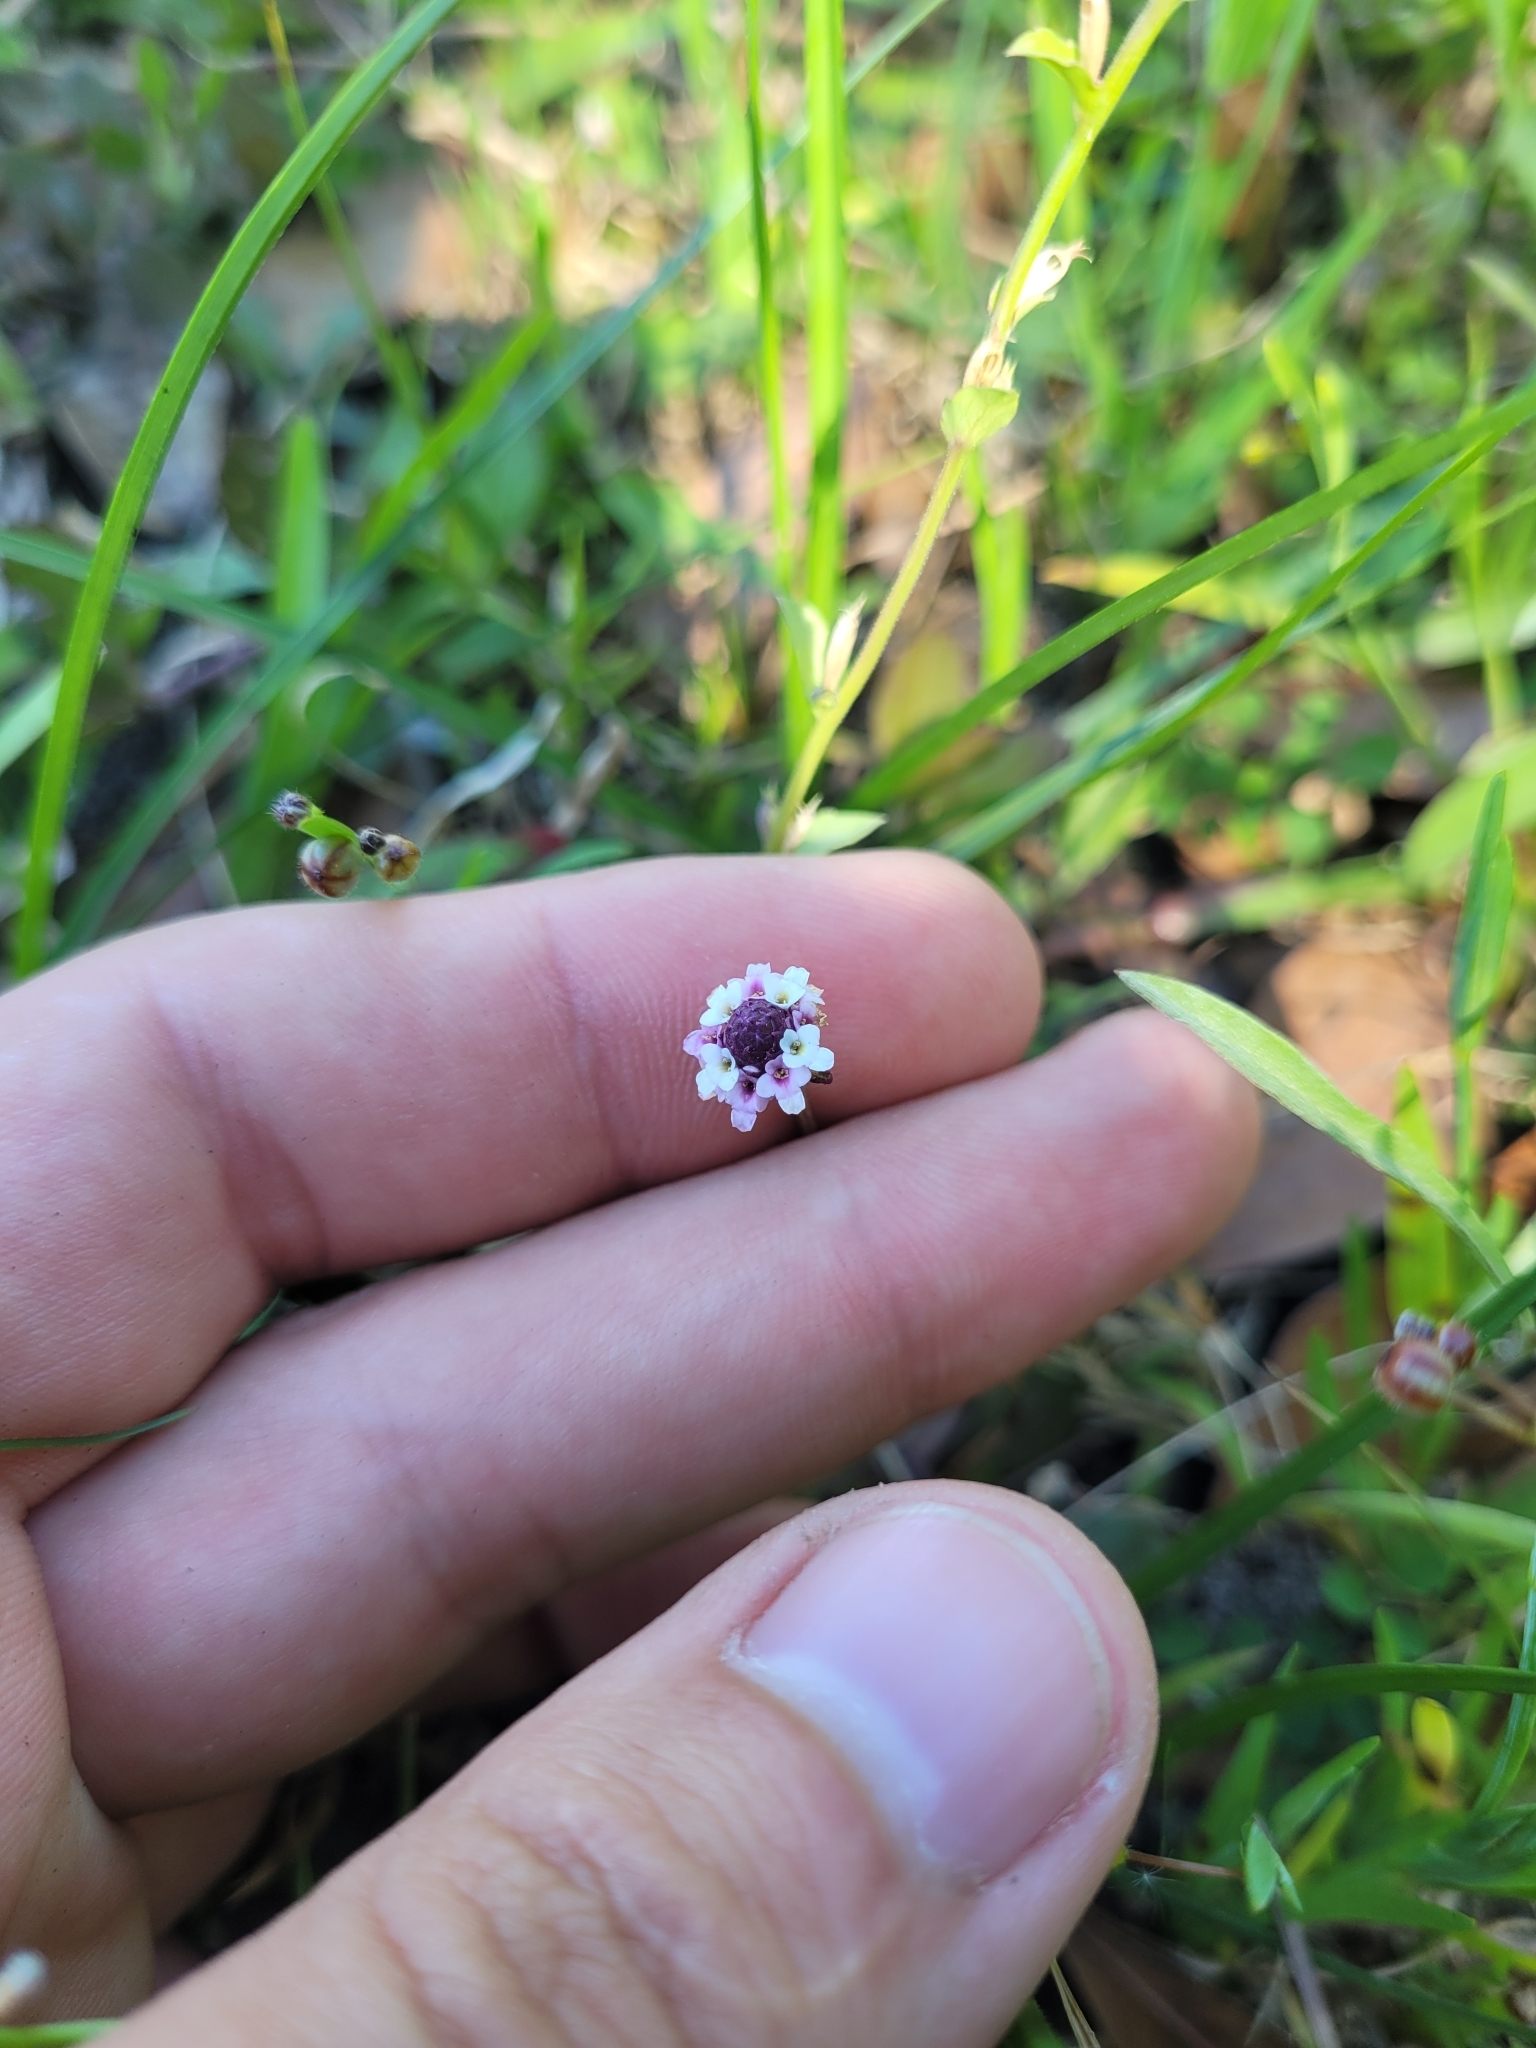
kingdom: Plantae
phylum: Tracheophyta
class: Magnoliopsida
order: Lamiales
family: Verbenaceae
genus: Phyla
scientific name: Phyla nodiflora
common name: Frogfruit
